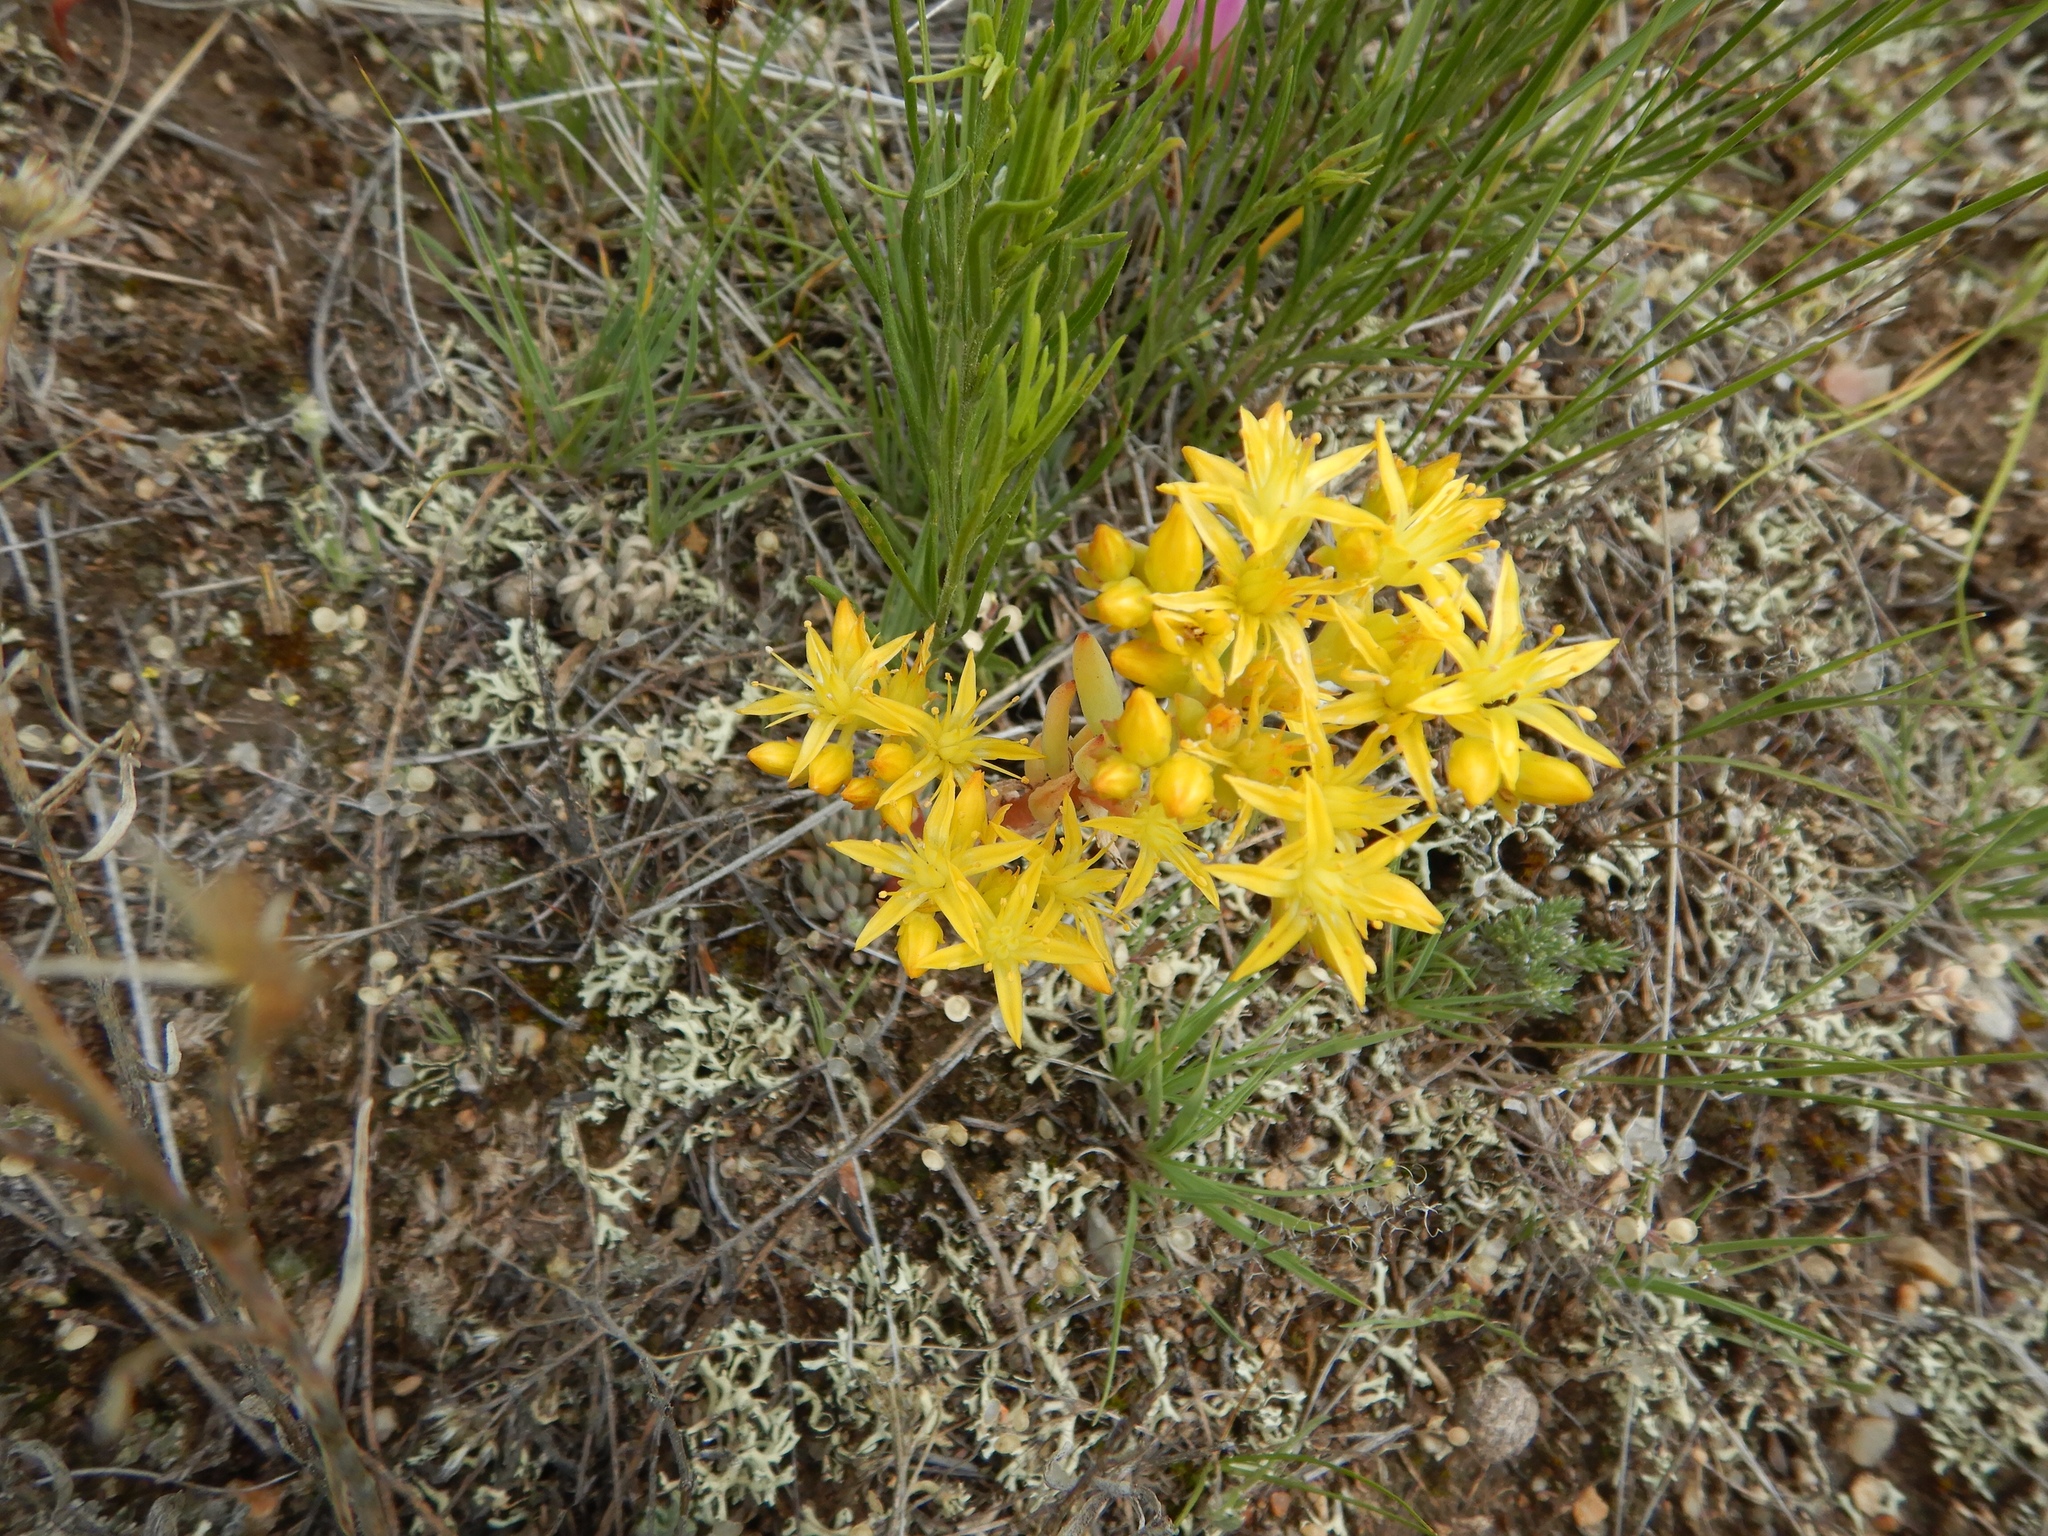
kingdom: Plantae
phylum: Tracheophyta
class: Magnoliopsida
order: Saxifragales
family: Crassulaceae
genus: Sedum
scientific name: Sedum lanceolatum
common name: Common stonecrop
